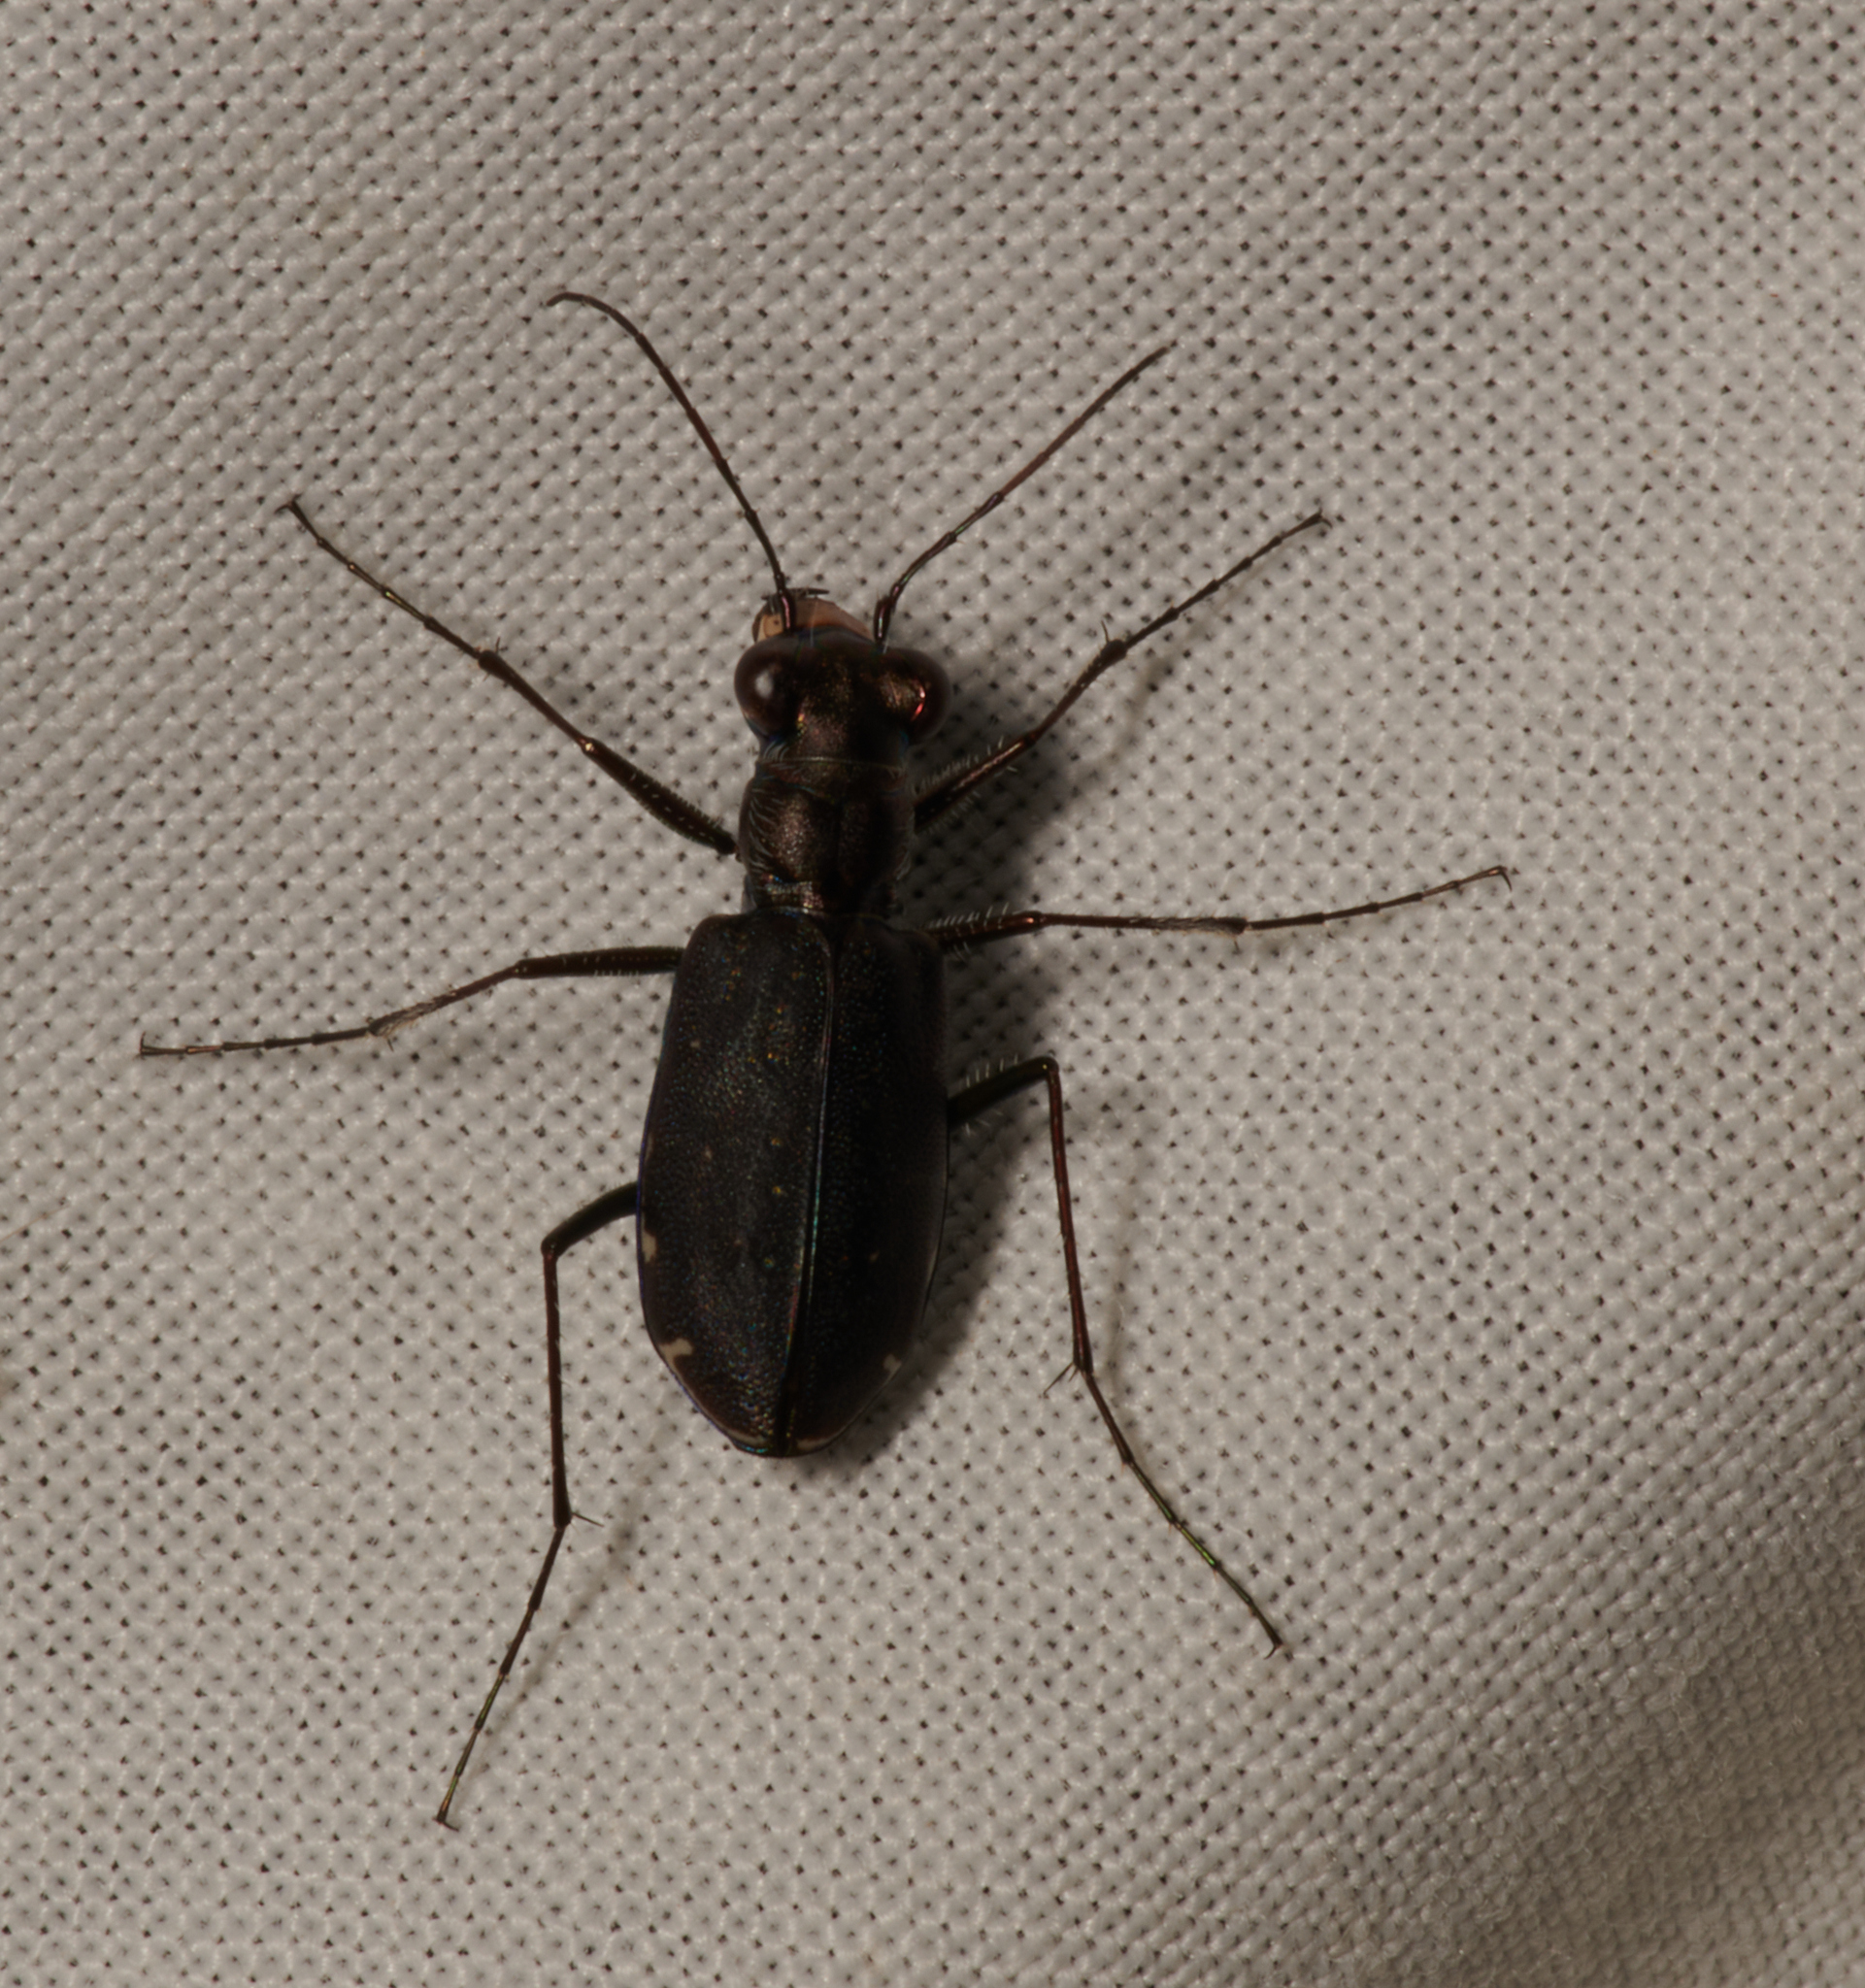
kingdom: Animalia
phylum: Arthropoda
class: Insecta
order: Coleoptera
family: Carabidae
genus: Cicindela
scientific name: Cicindela punctulata
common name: Punctured tiger beetle
